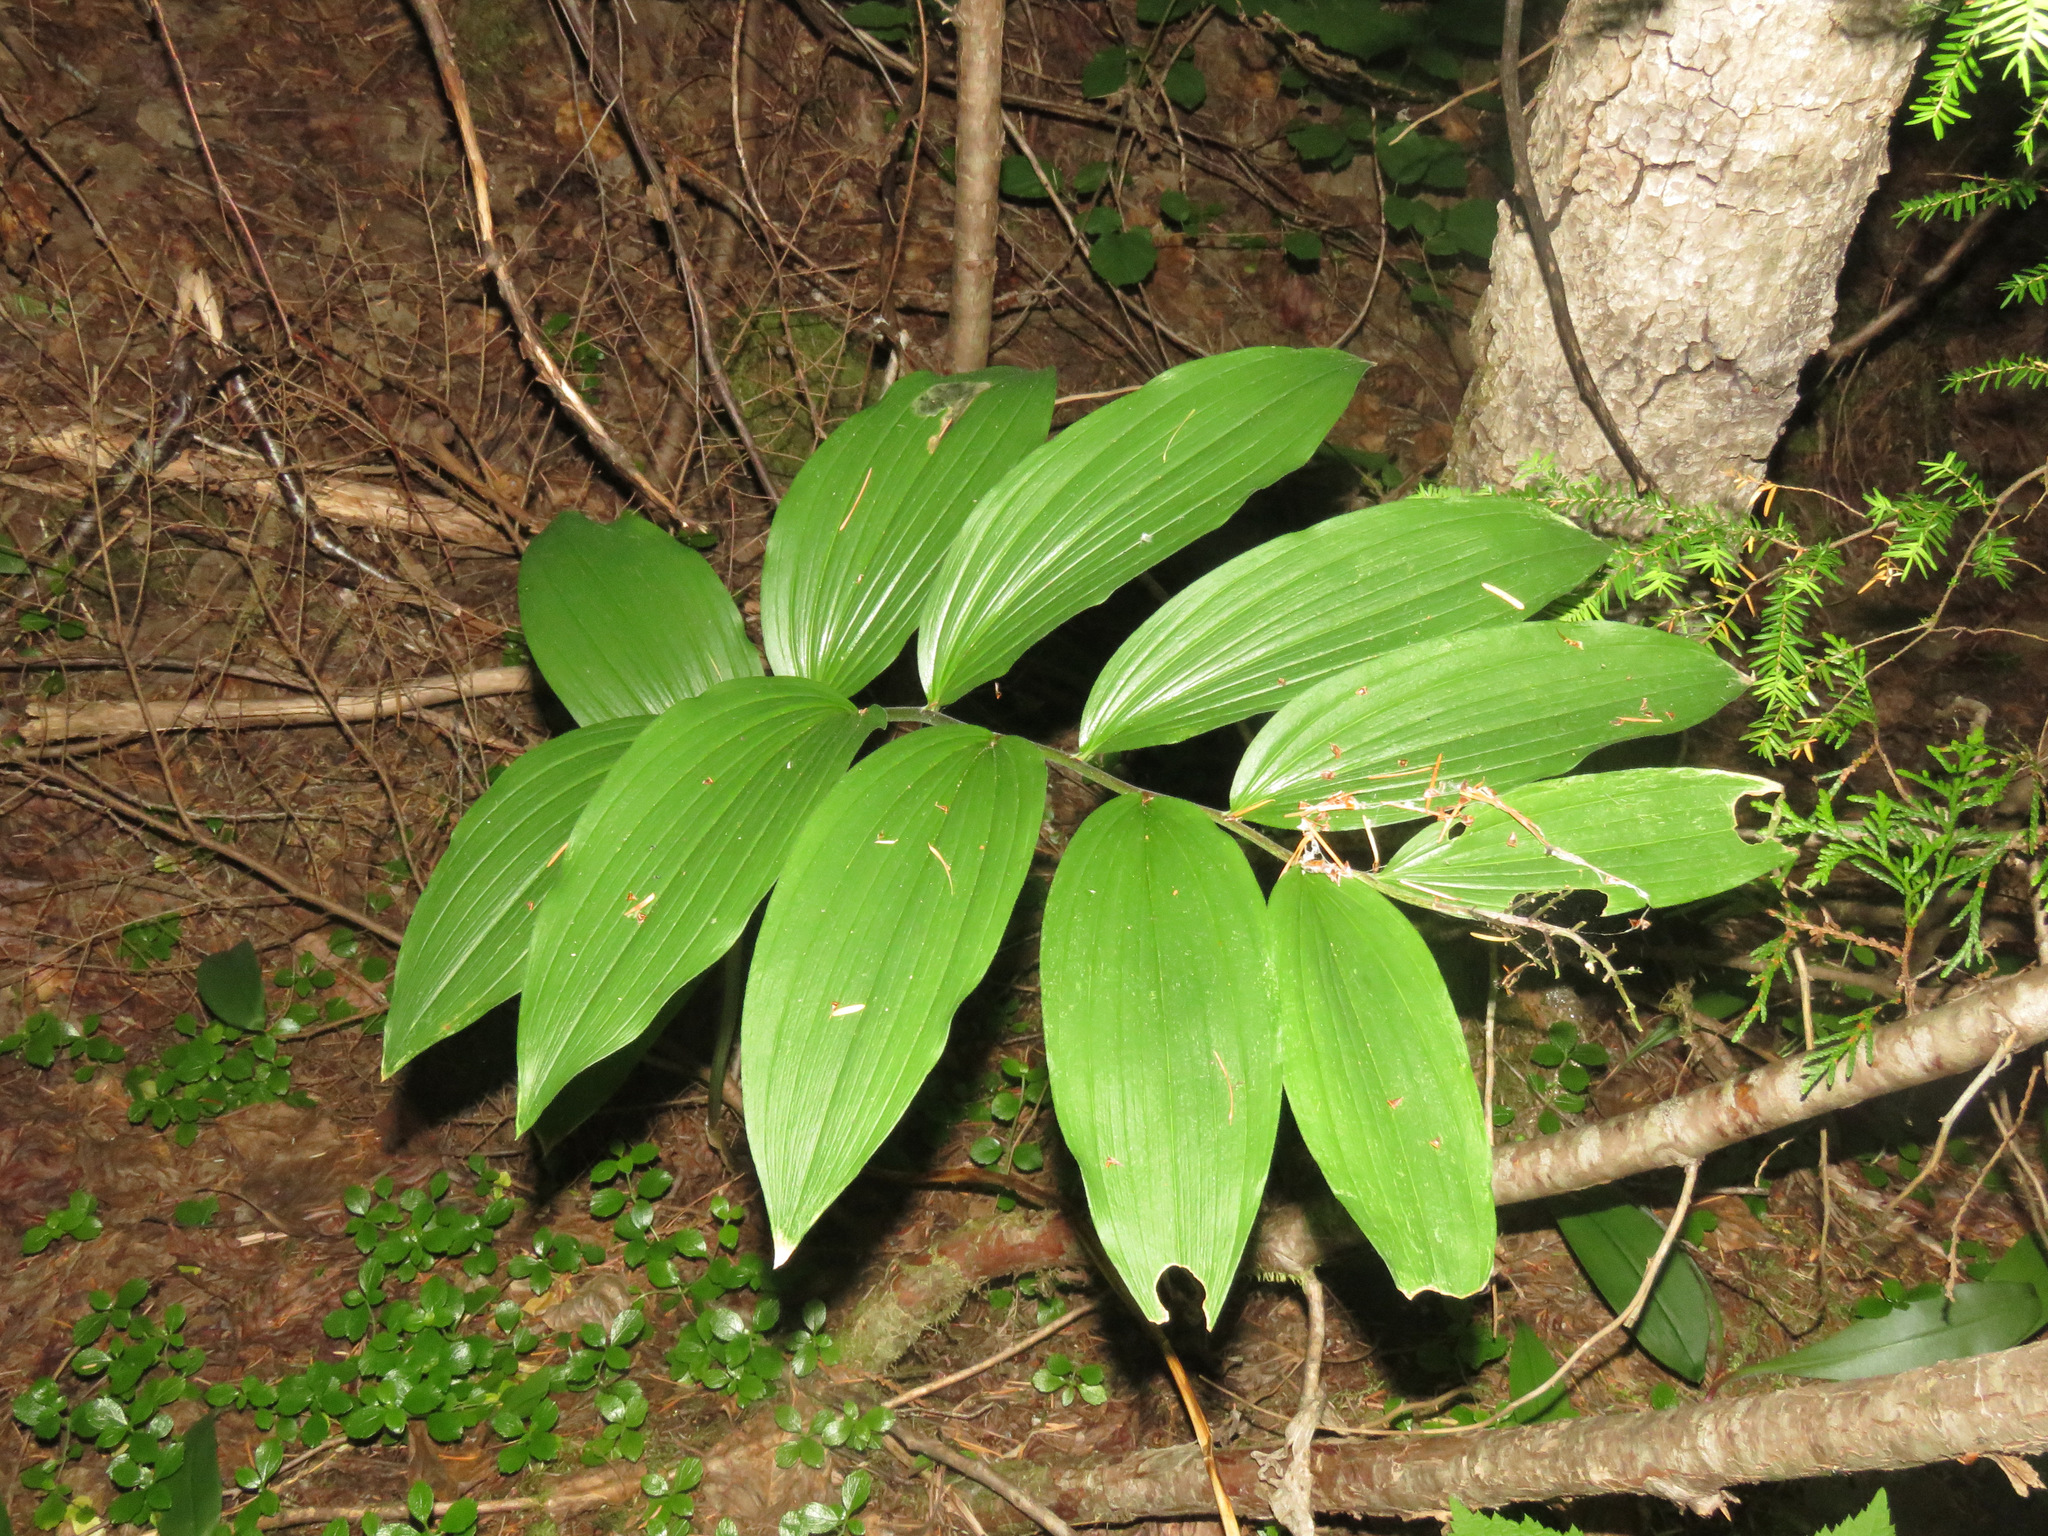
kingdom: Plantae
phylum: Tracheophyta
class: Liliopsida
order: Asparagales
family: Asparagaceae
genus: Maianthemum
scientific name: Maianthemum racemosum
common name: False spikenard
